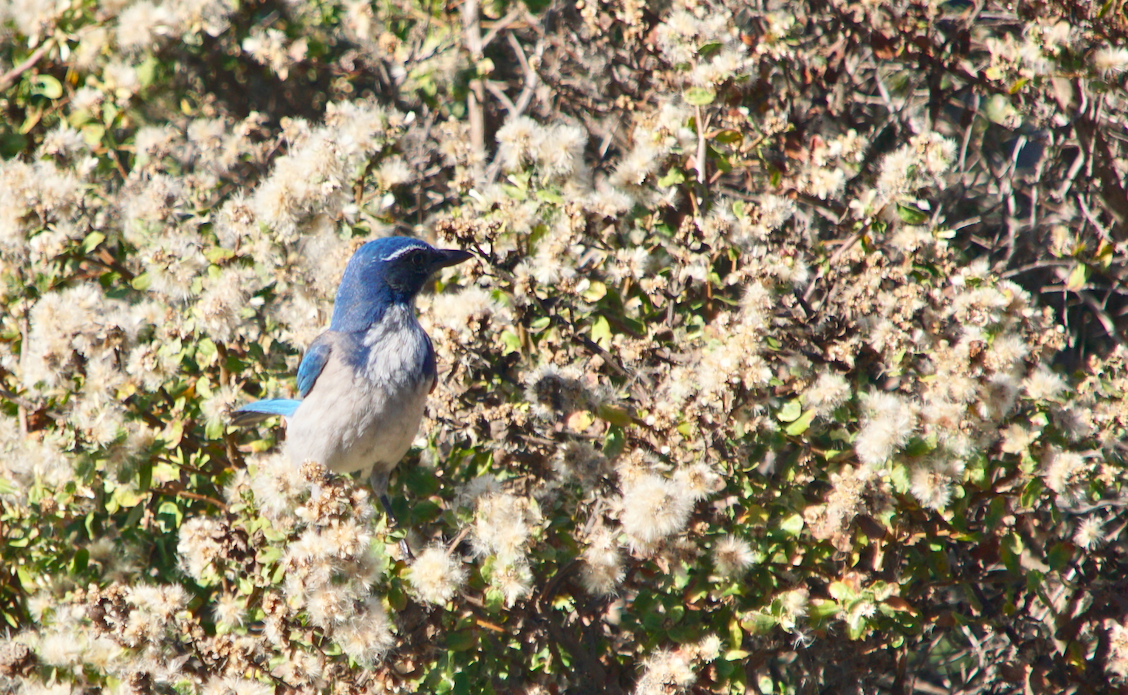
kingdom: Animalia
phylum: Chordata
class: Aves
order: Passeriformes
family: Corvidae
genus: Aphelocoma
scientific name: Aphelocoma californica
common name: California scrub-jay
